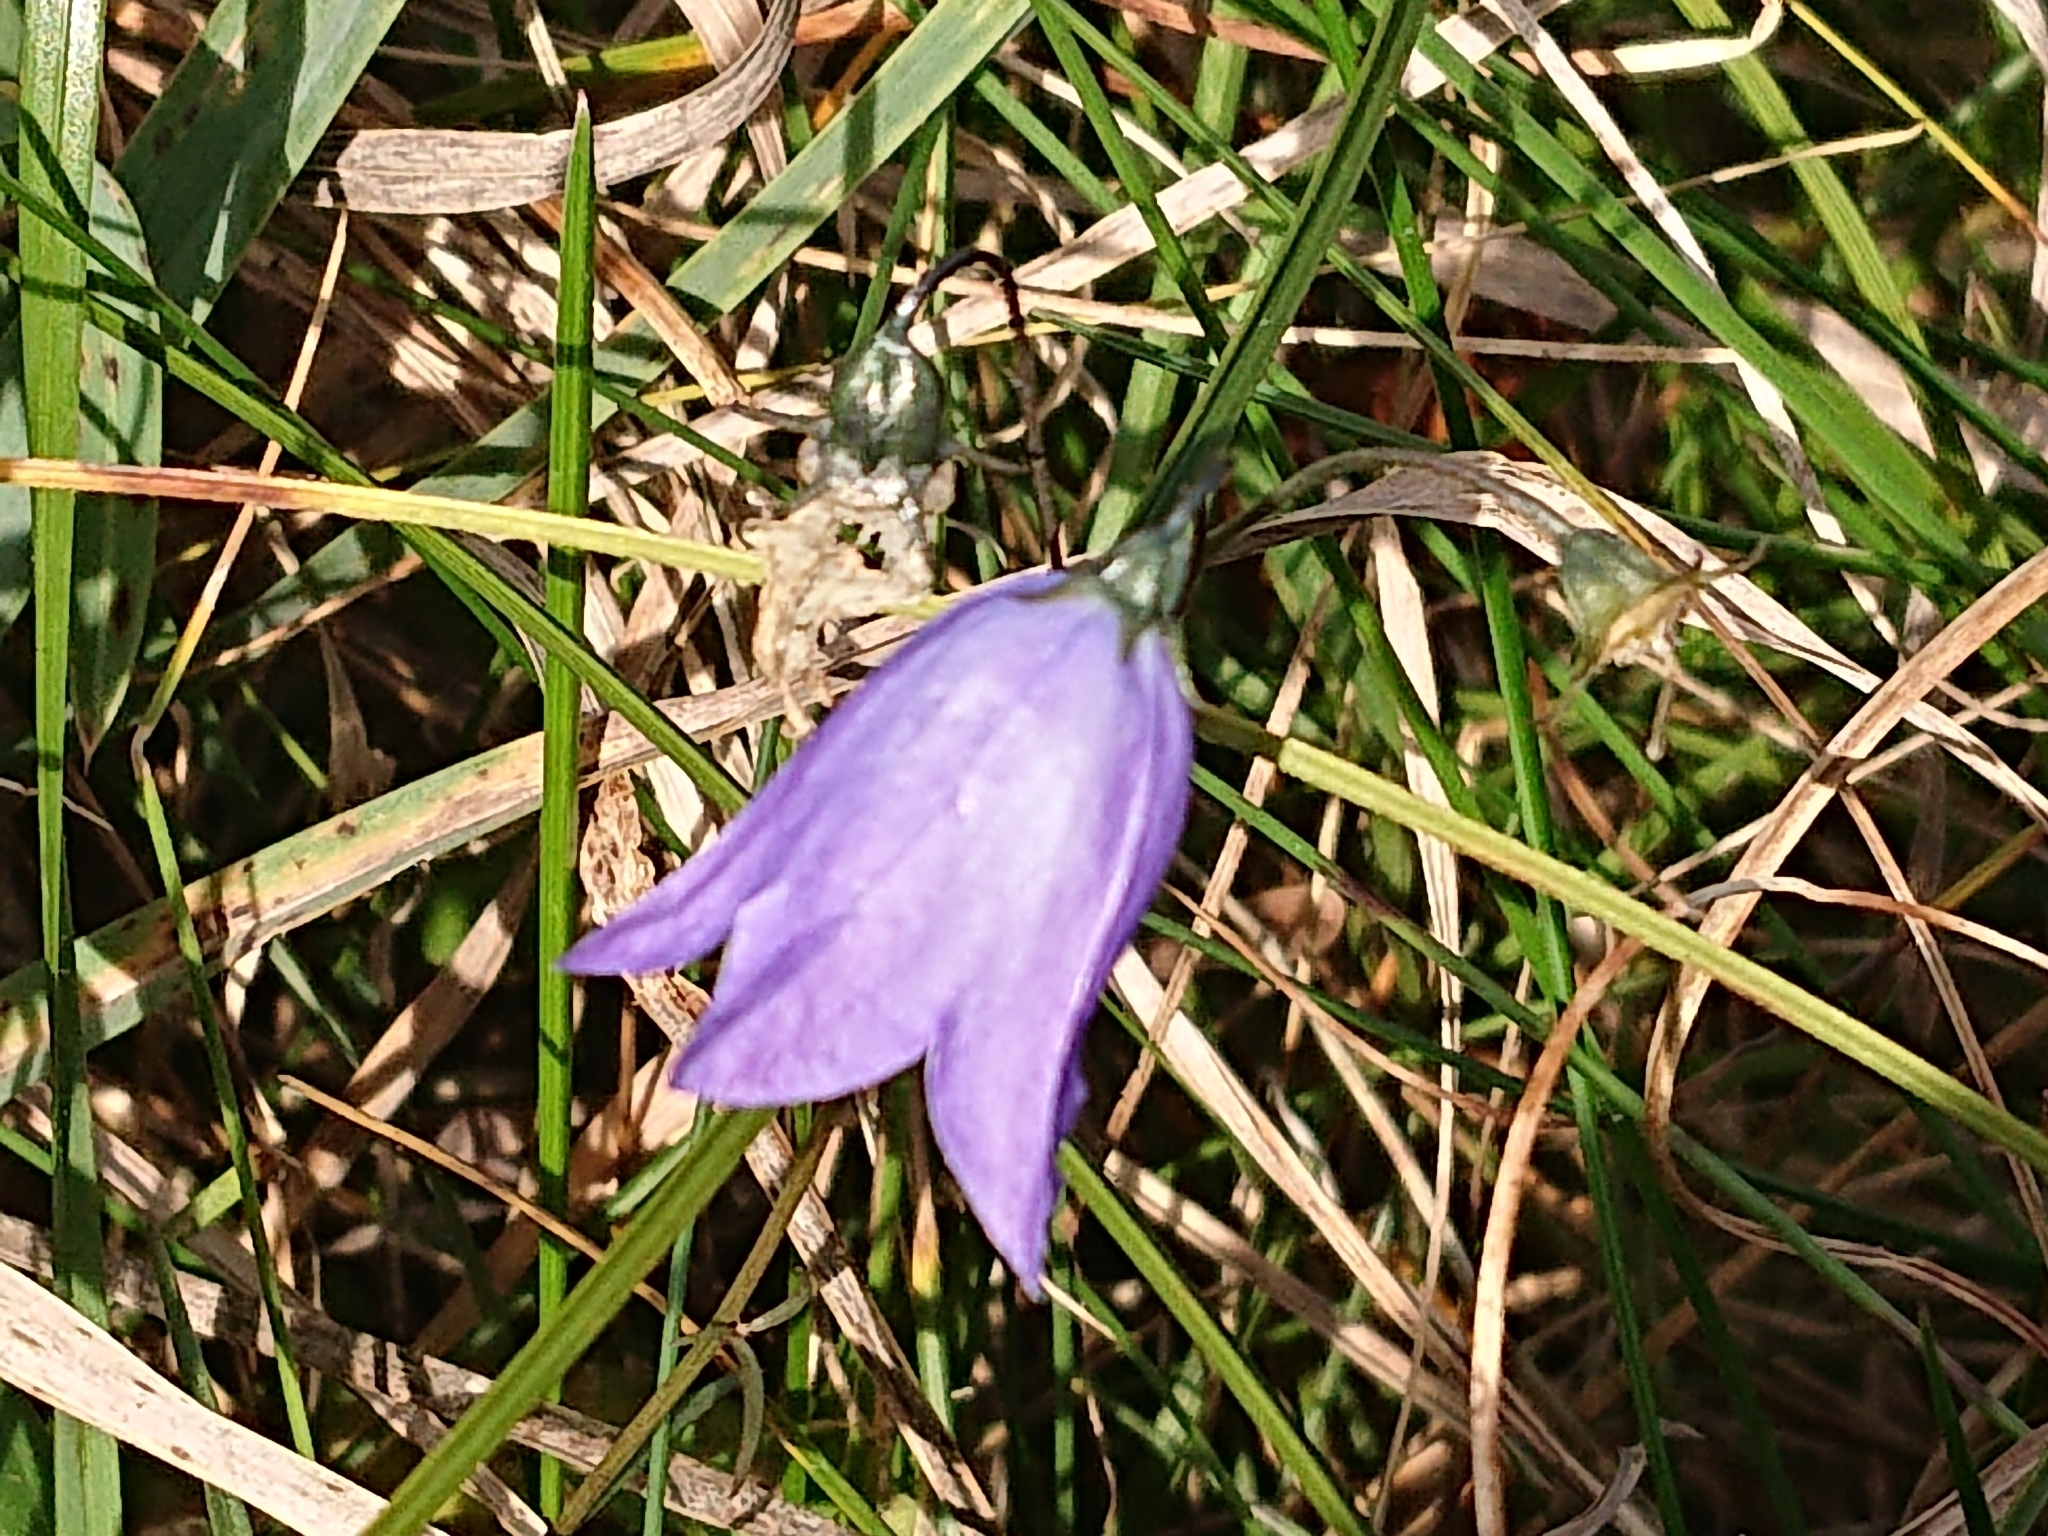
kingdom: Plantae
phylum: Tracheophyta
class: Magnoliopsida
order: Asterales
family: Campanulaceae
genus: Campanula
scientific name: Campanula rotundifolia
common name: Harebell
